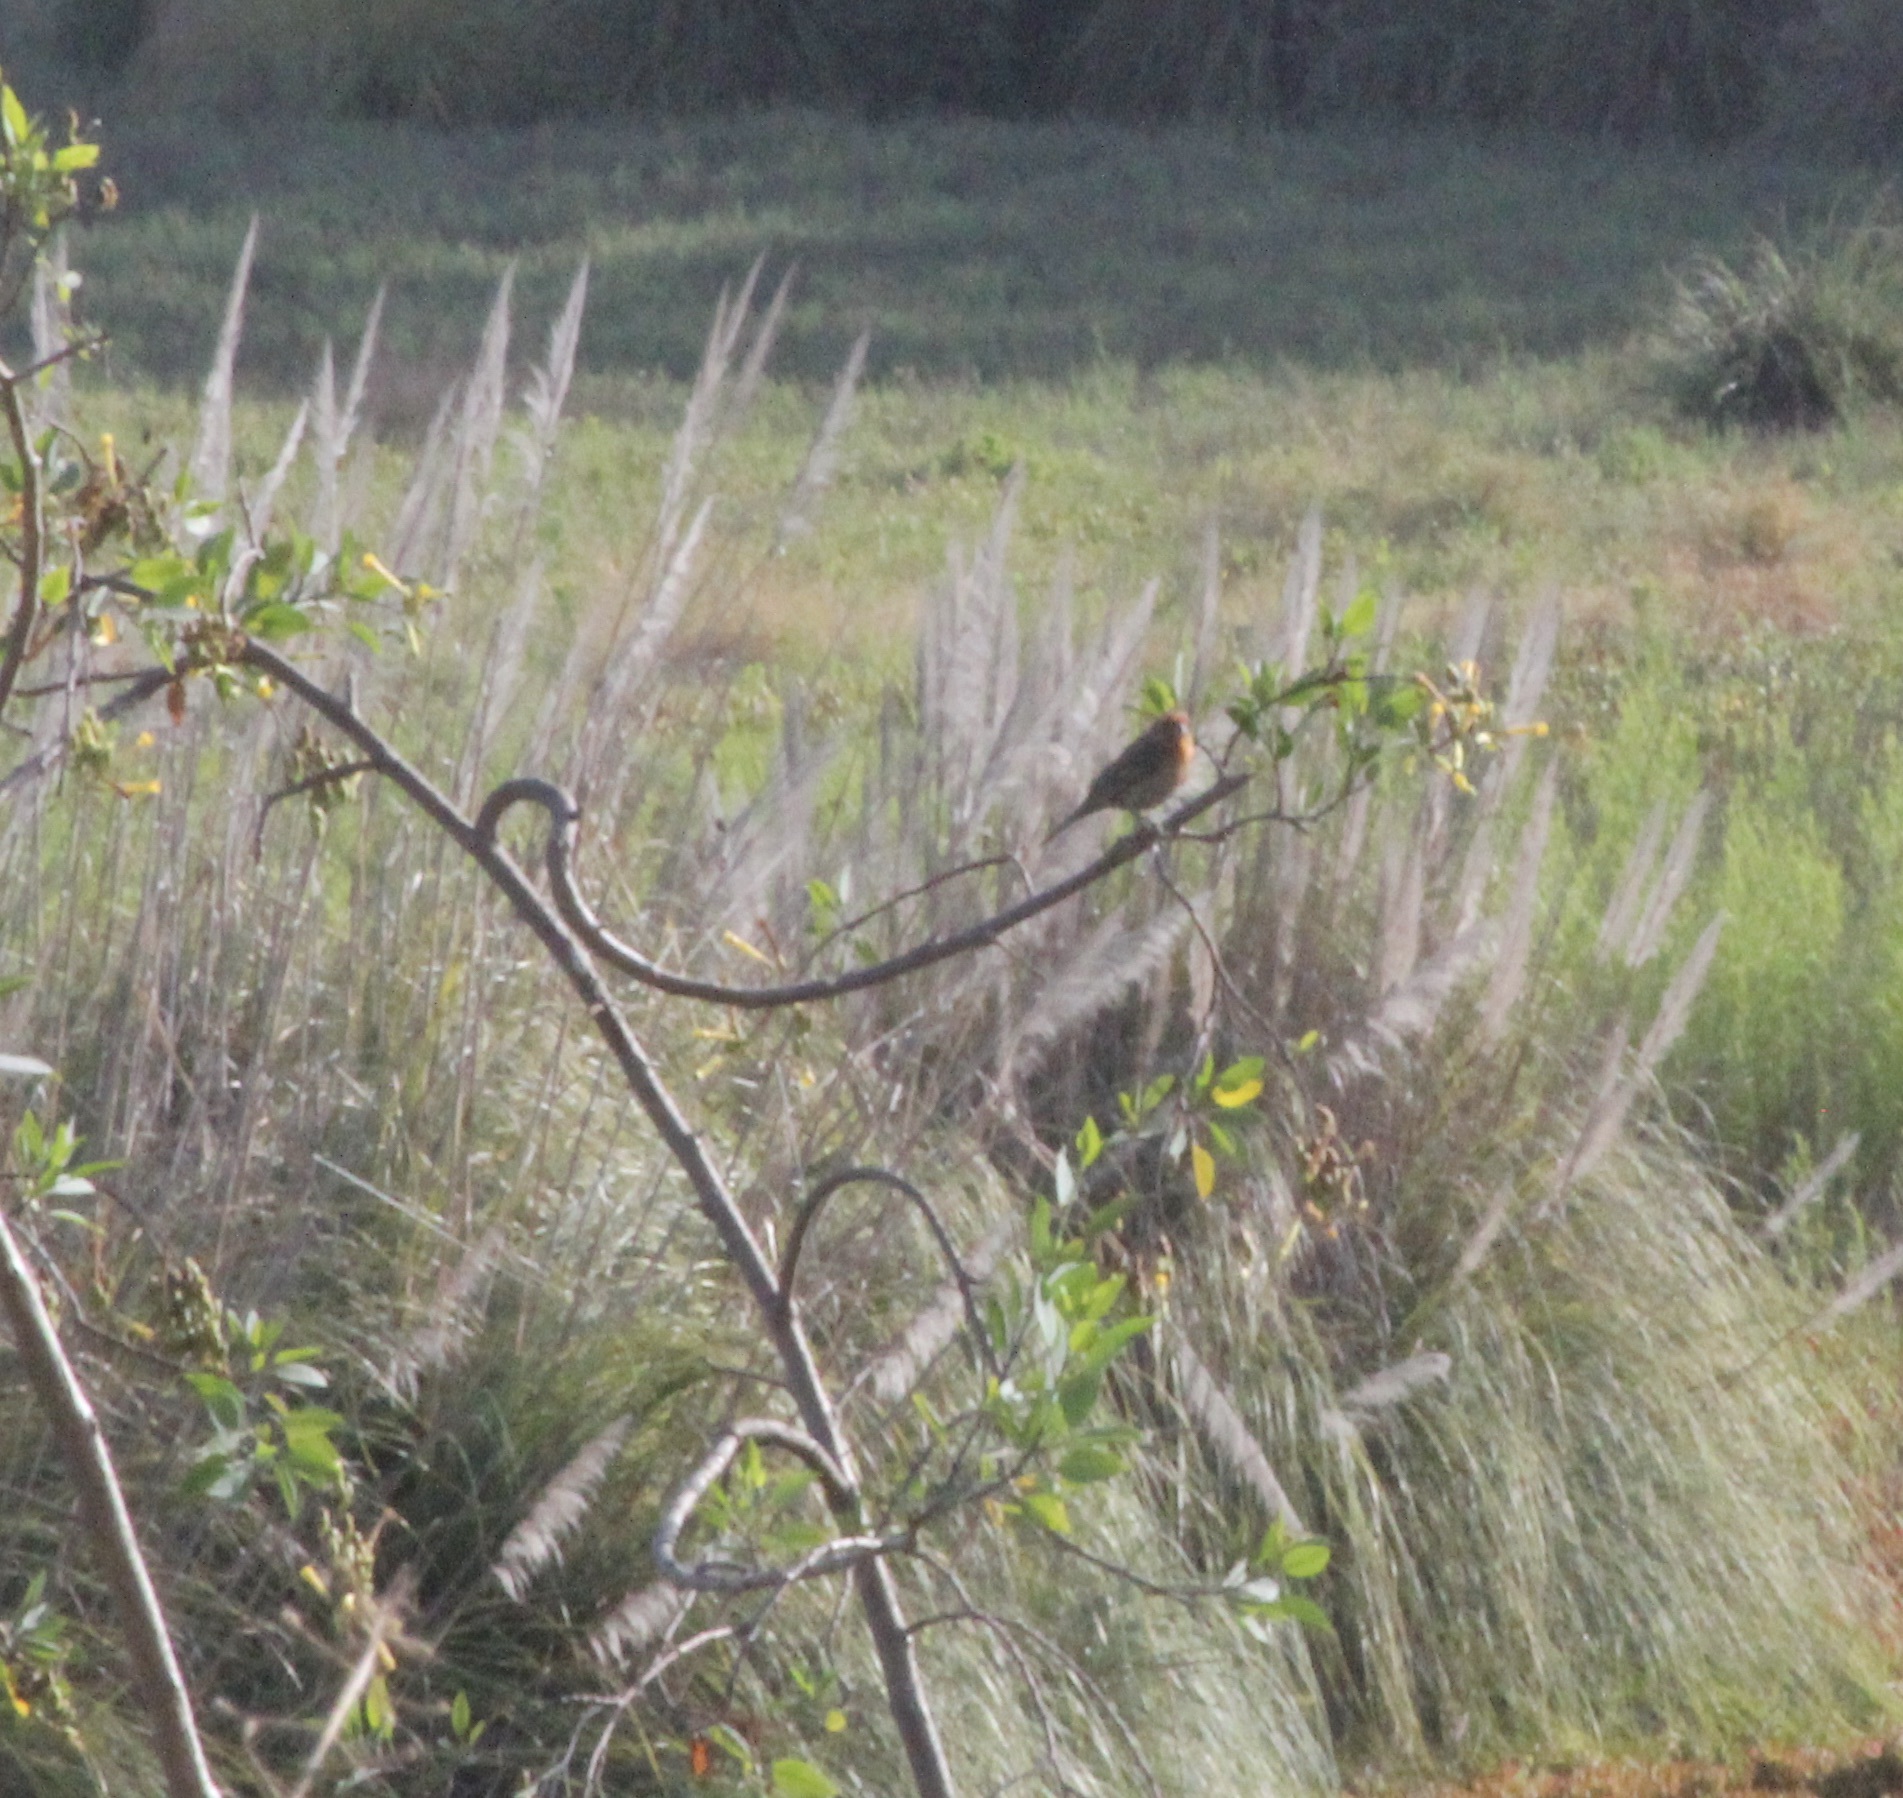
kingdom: Animalia
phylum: Chordata
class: Aves
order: Passeriformes
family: Fringillidae
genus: Haemorhous
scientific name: Haemorhous mexicanus
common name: House finch
